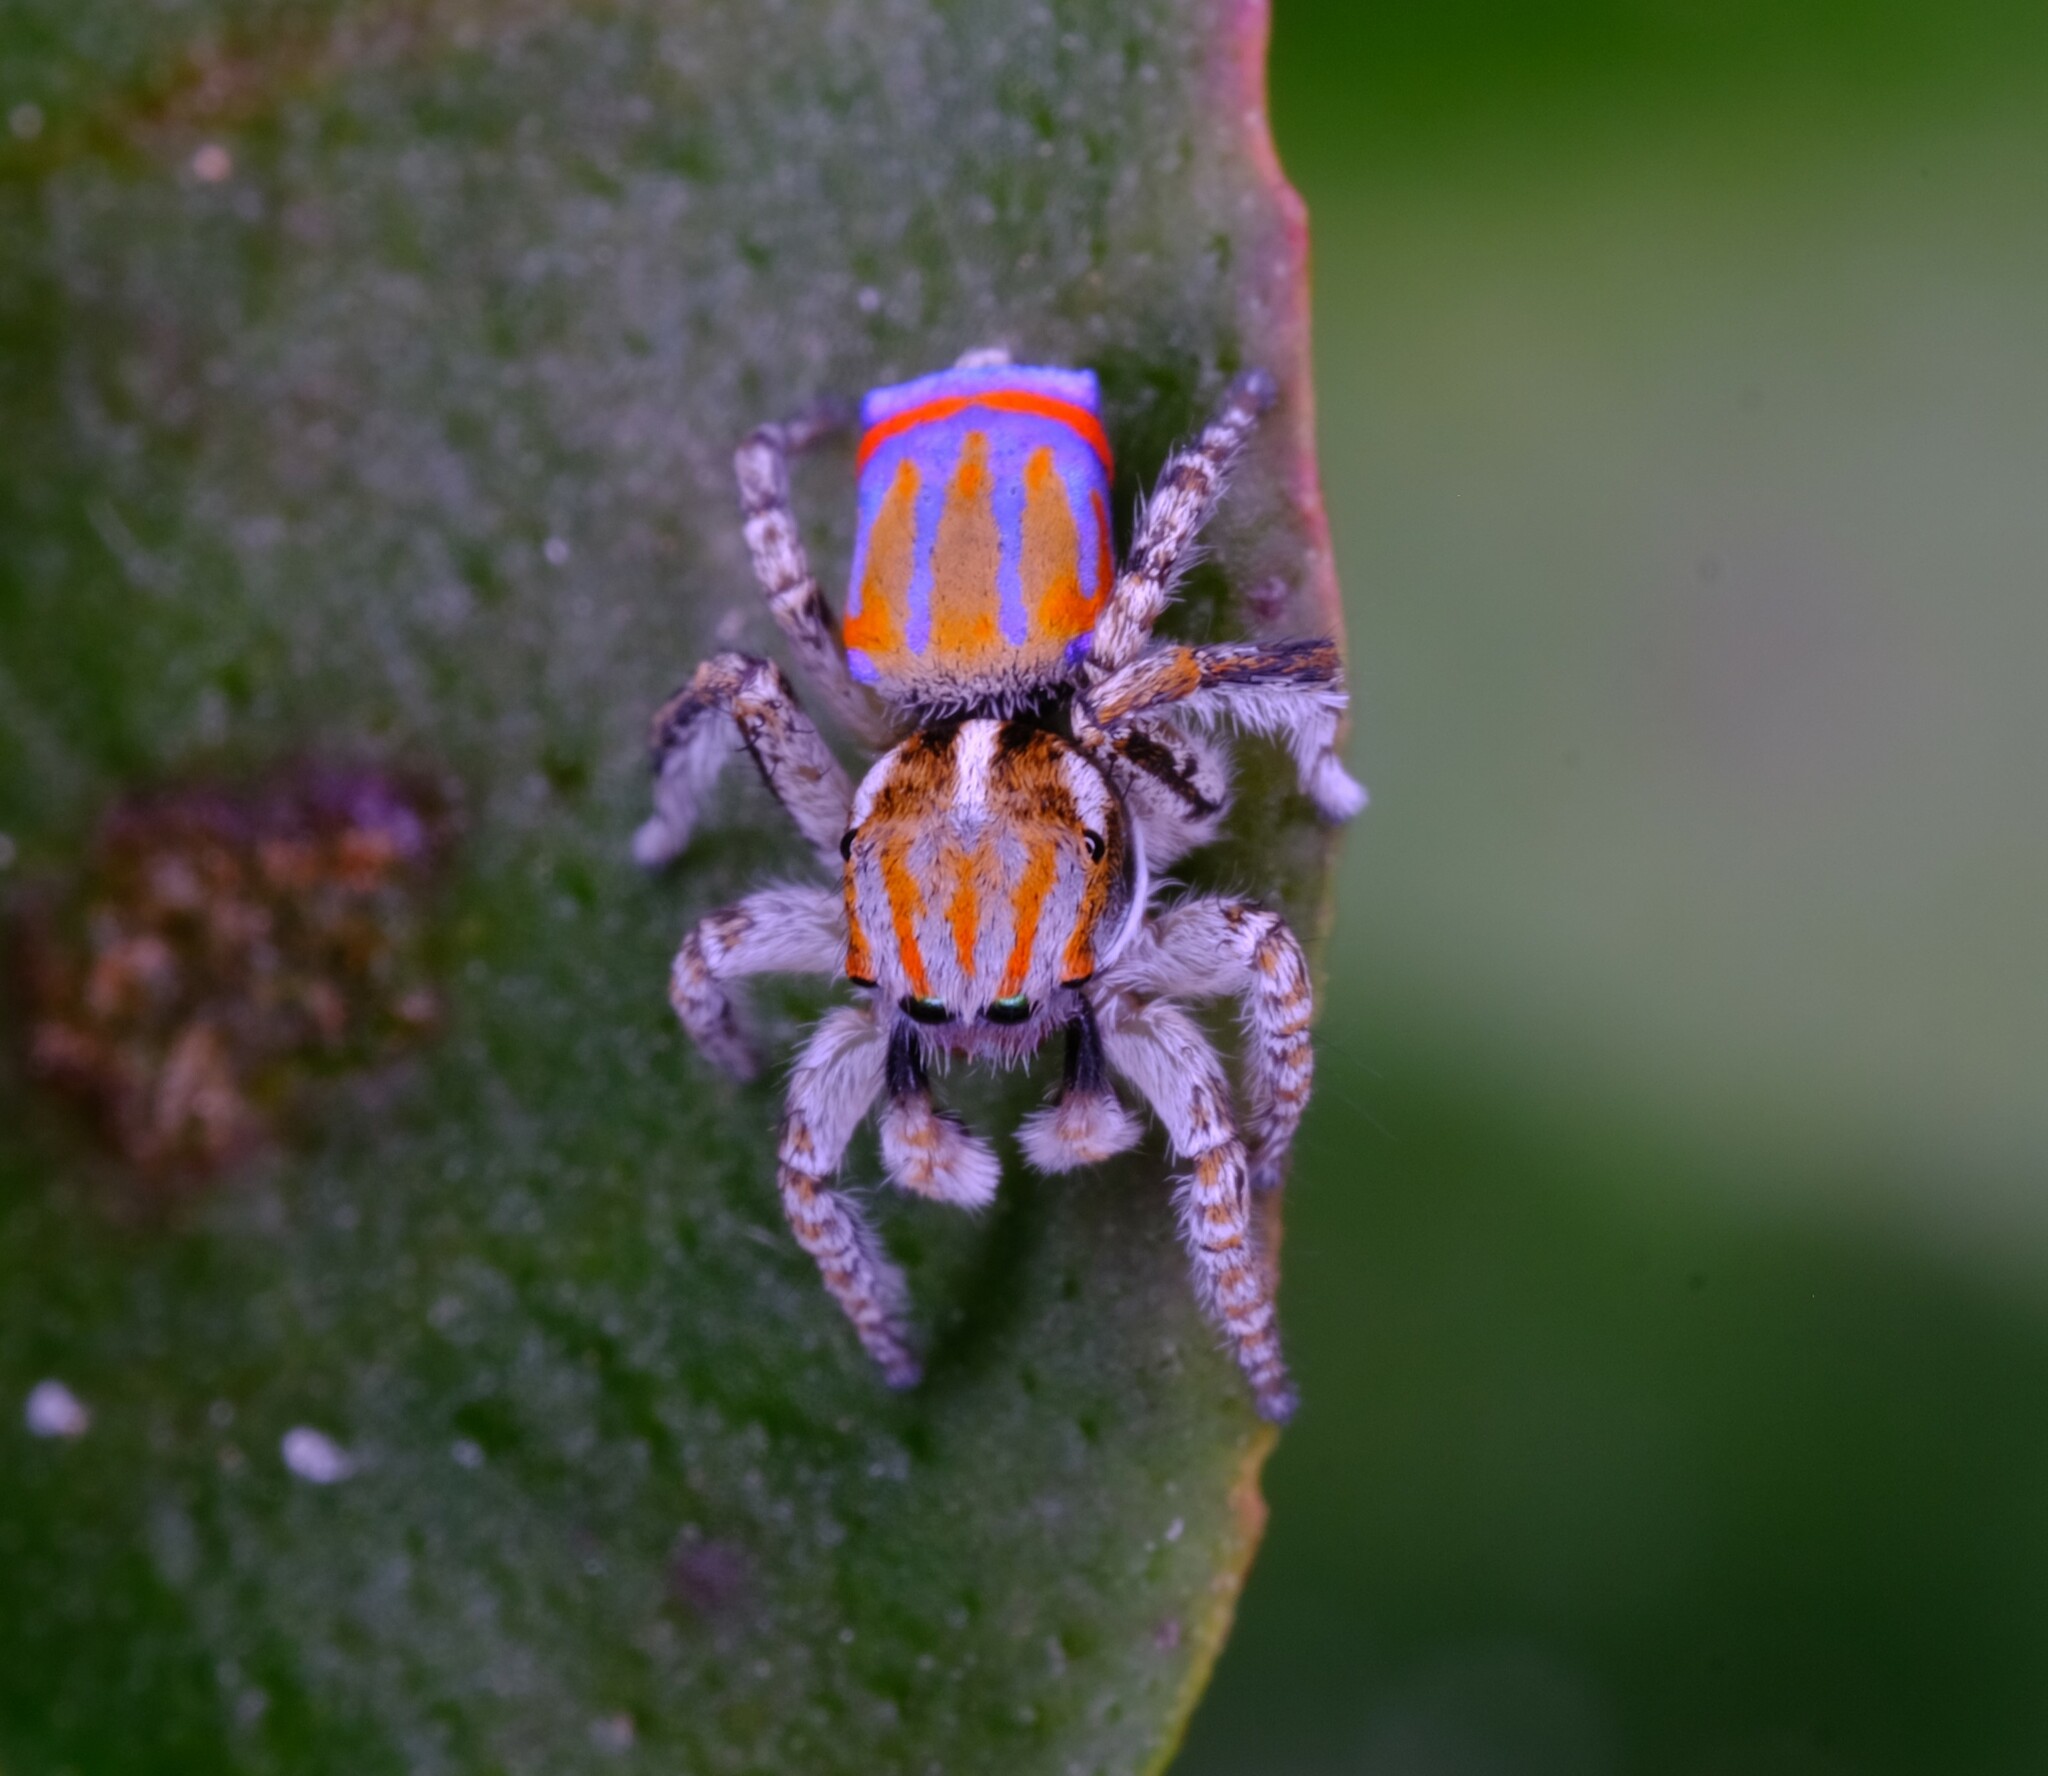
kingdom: Animalia
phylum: Arthropoda
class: Arachnida
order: Araneae
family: Salticidae
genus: Maratus
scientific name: Maratus tasmanicus
